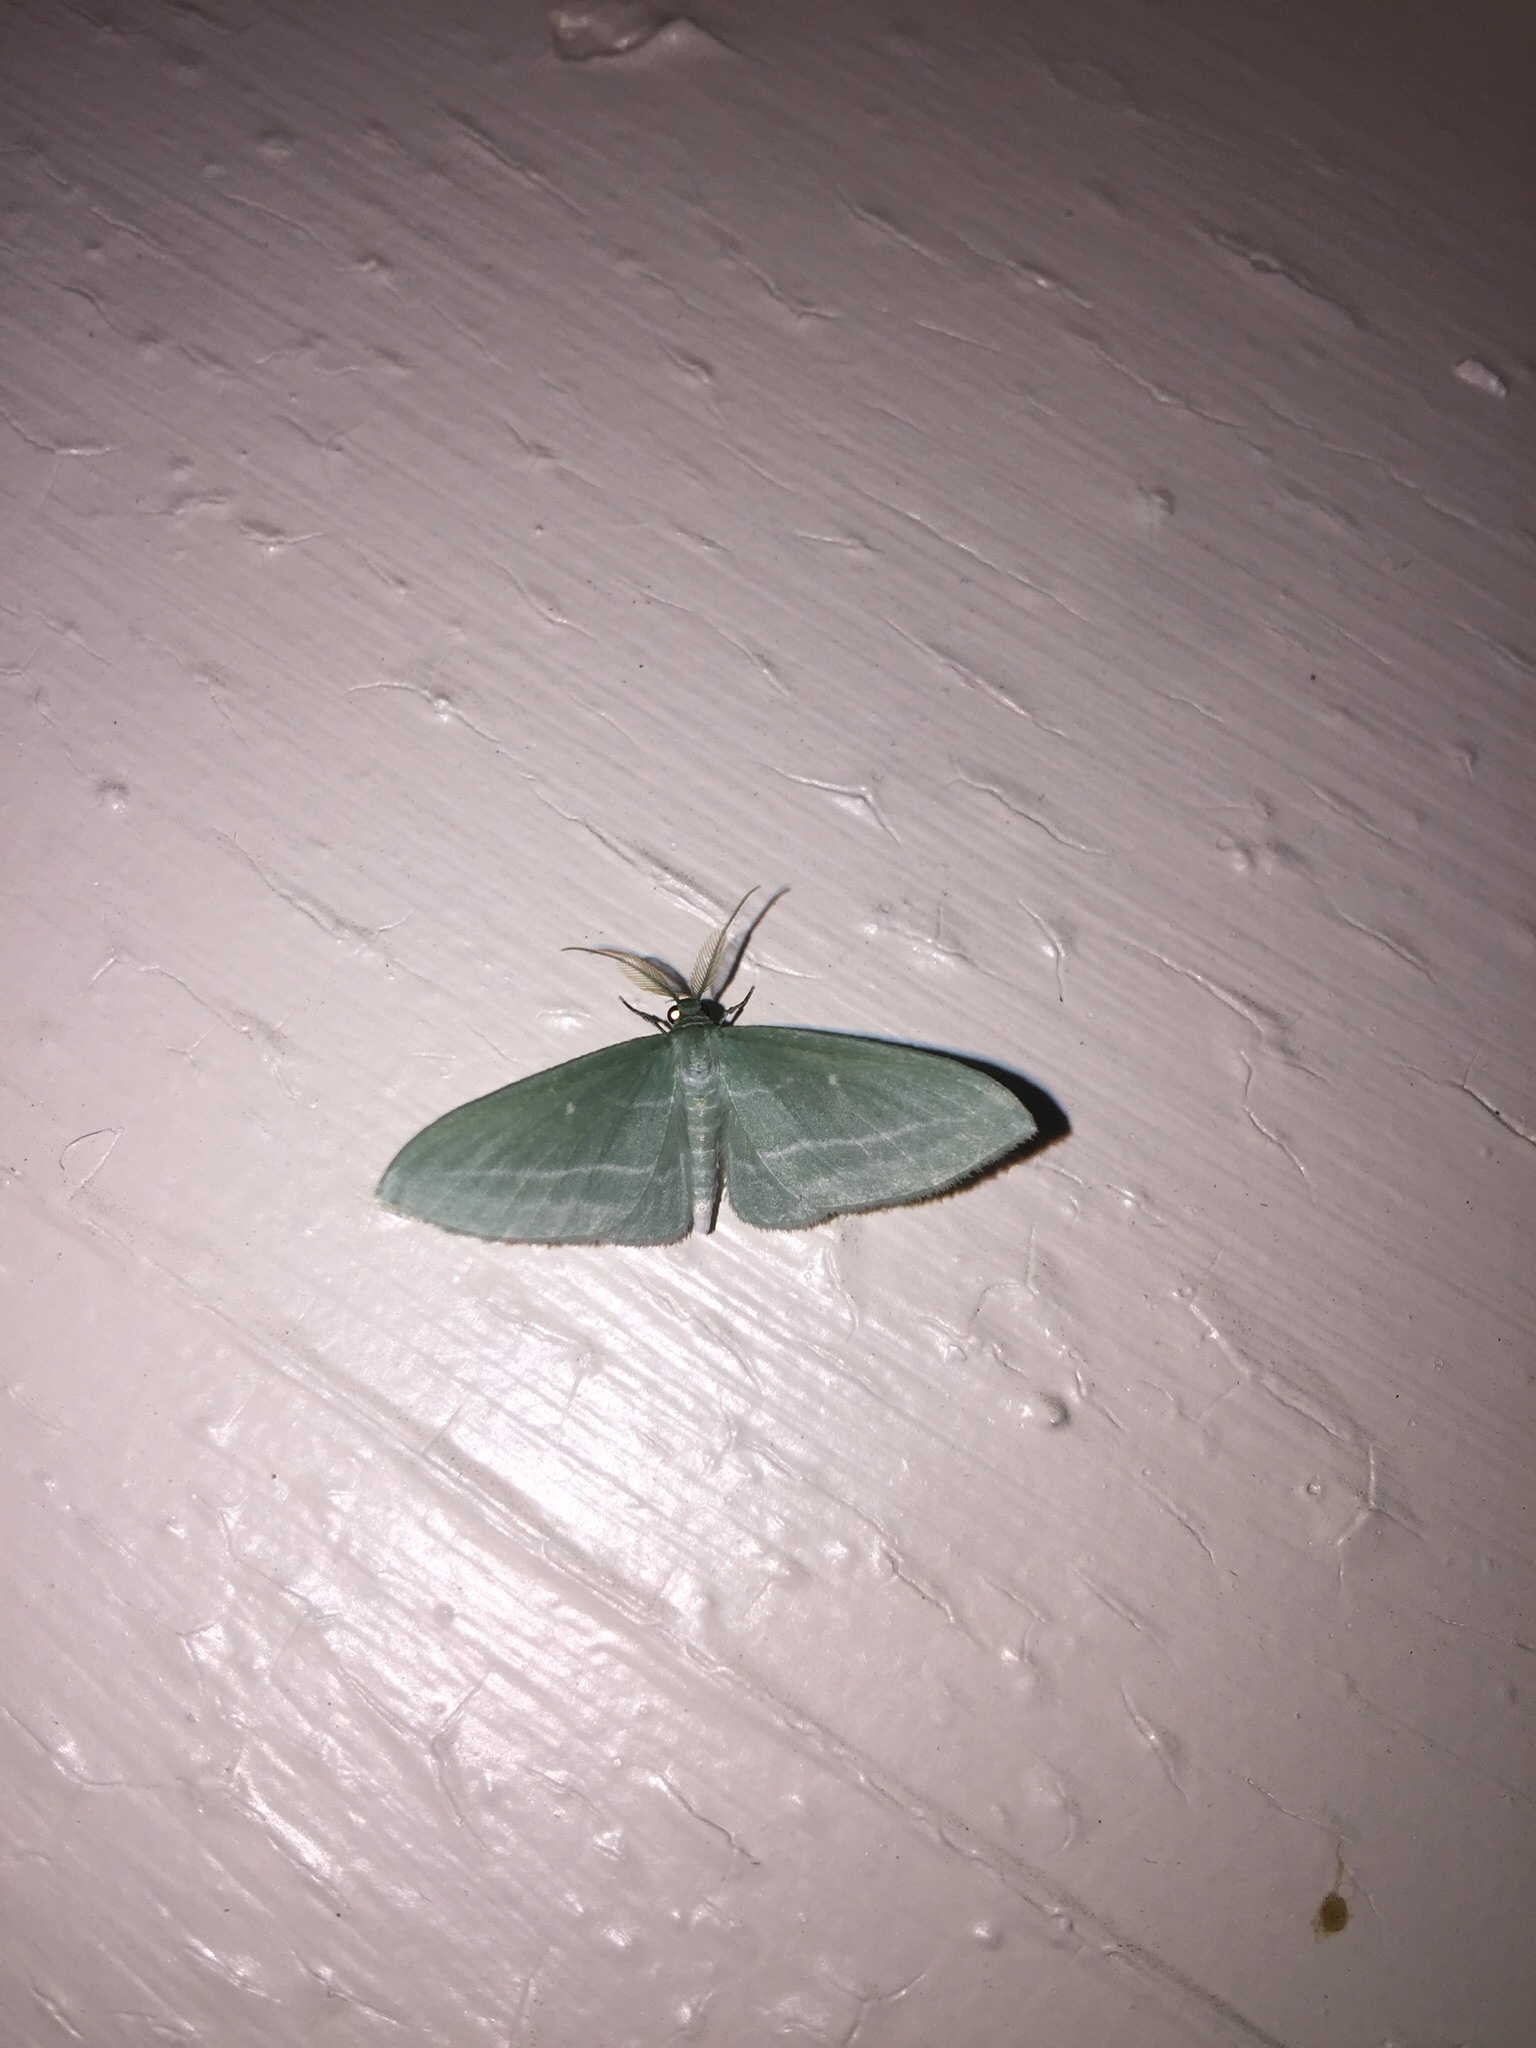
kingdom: Animalia
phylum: Arthropoda
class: Insecta
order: Lepidoptera
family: Geometridae
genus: Dyspteris
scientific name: Dyspteris abortivaria
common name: Bad-wing
